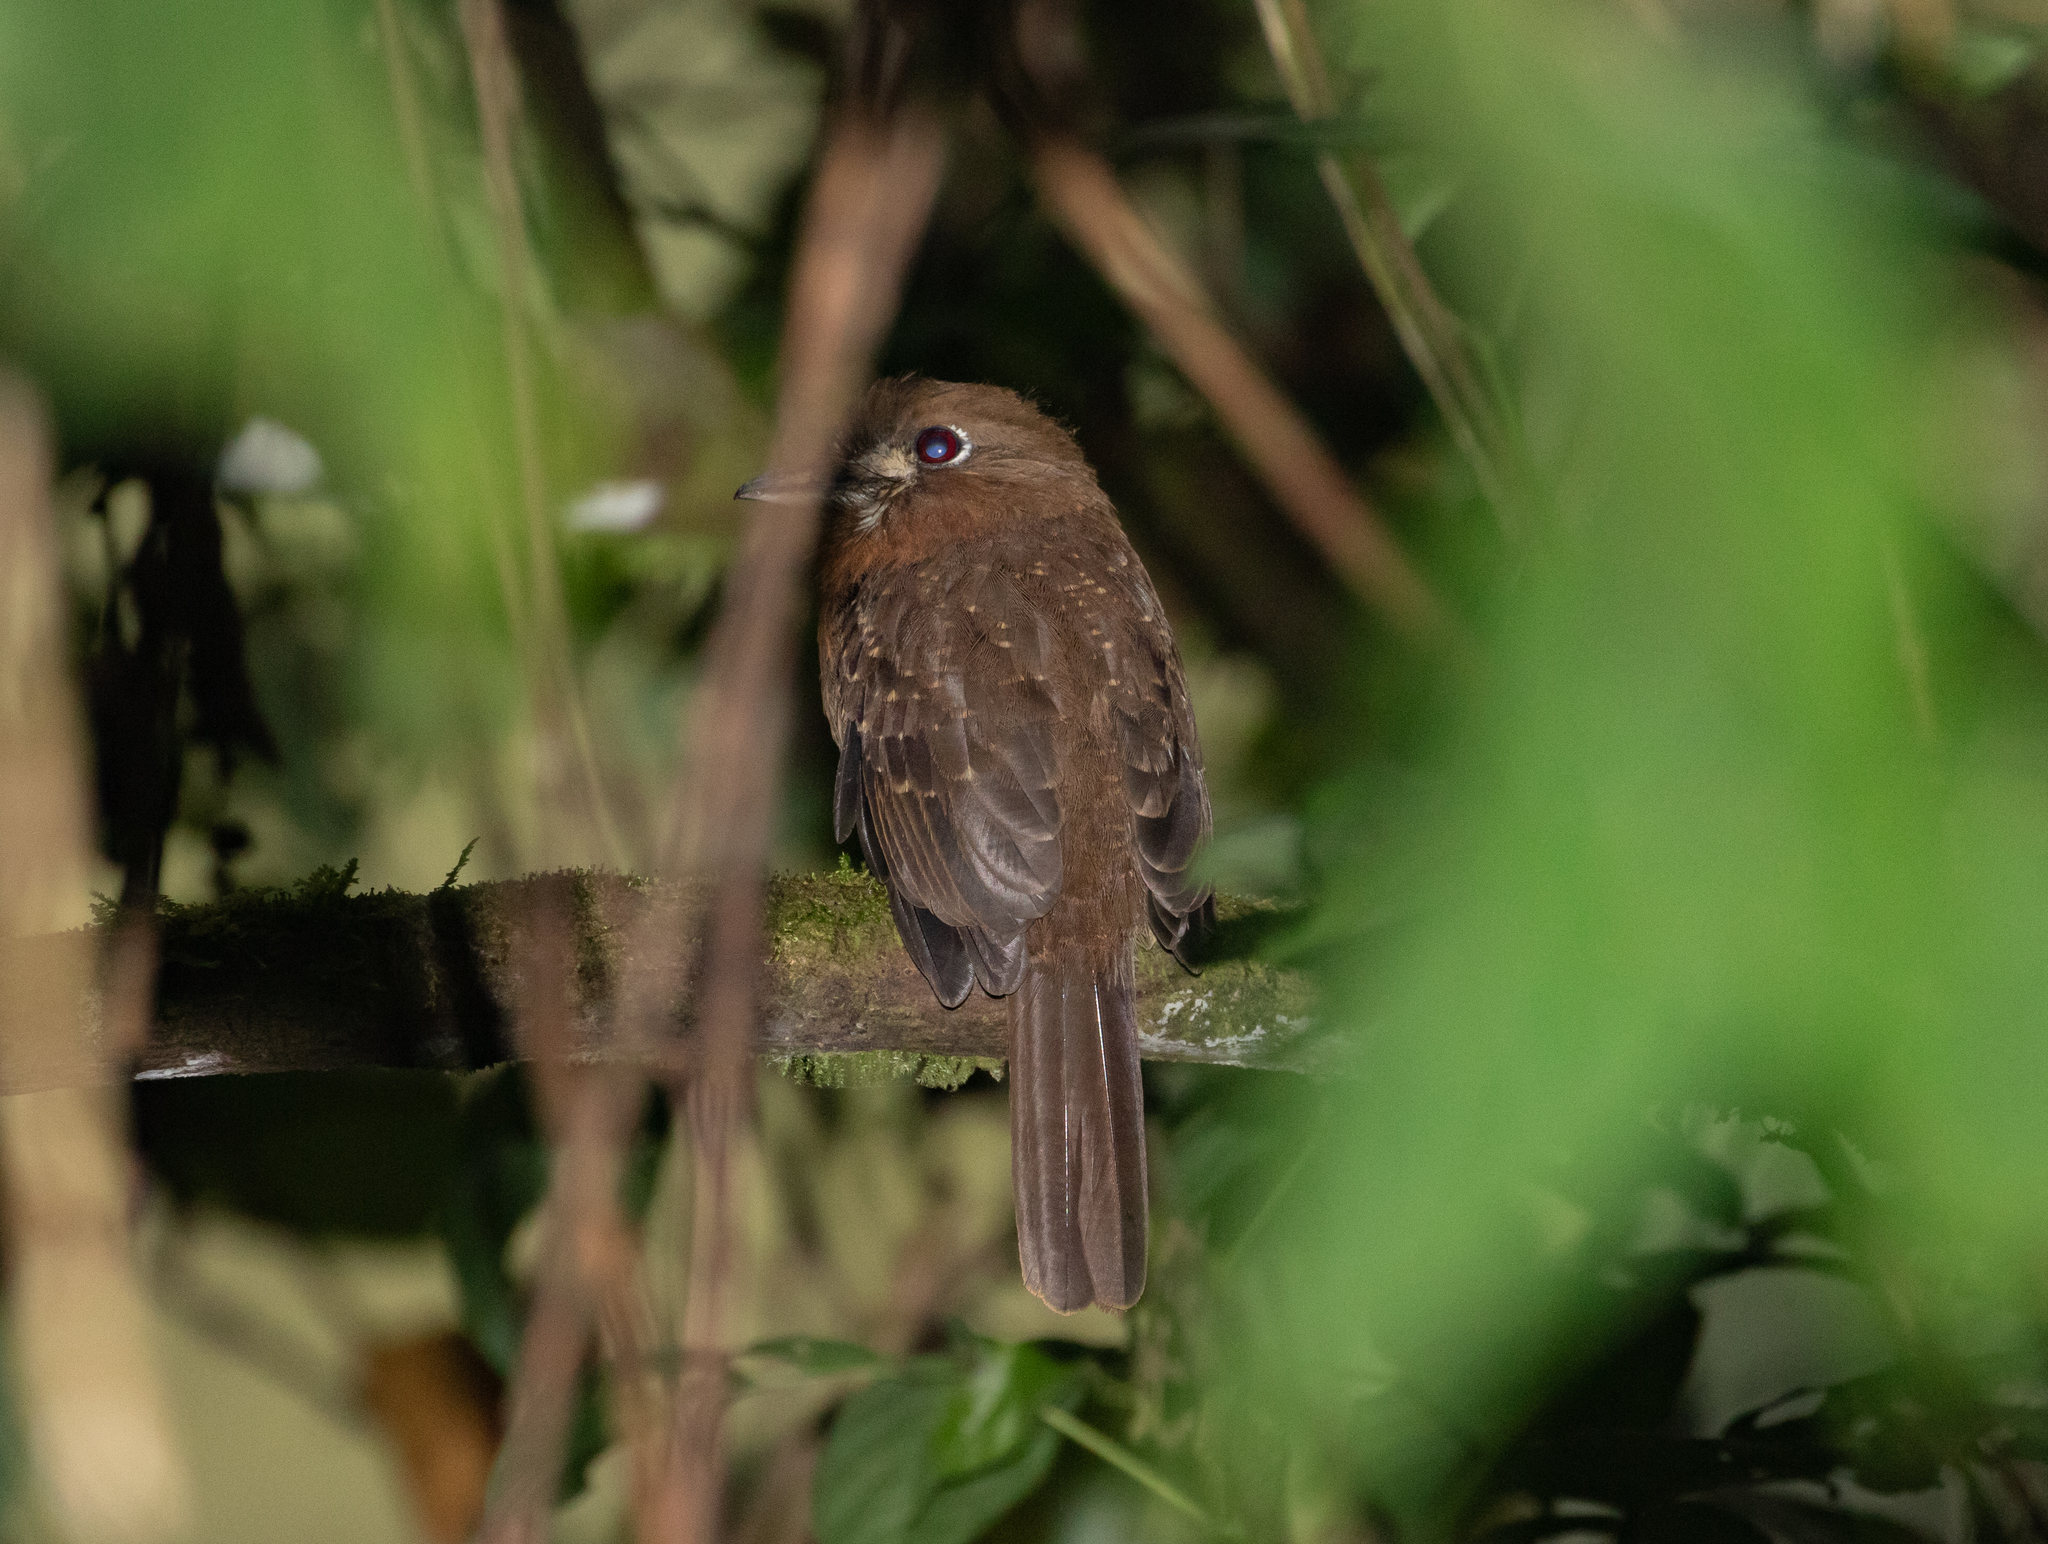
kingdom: Animalia
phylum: Chordata
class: Aves
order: Piciformes
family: Bucconidae
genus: Malacoptila
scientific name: Malacoptila mystacalis
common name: Moustached puffbird
